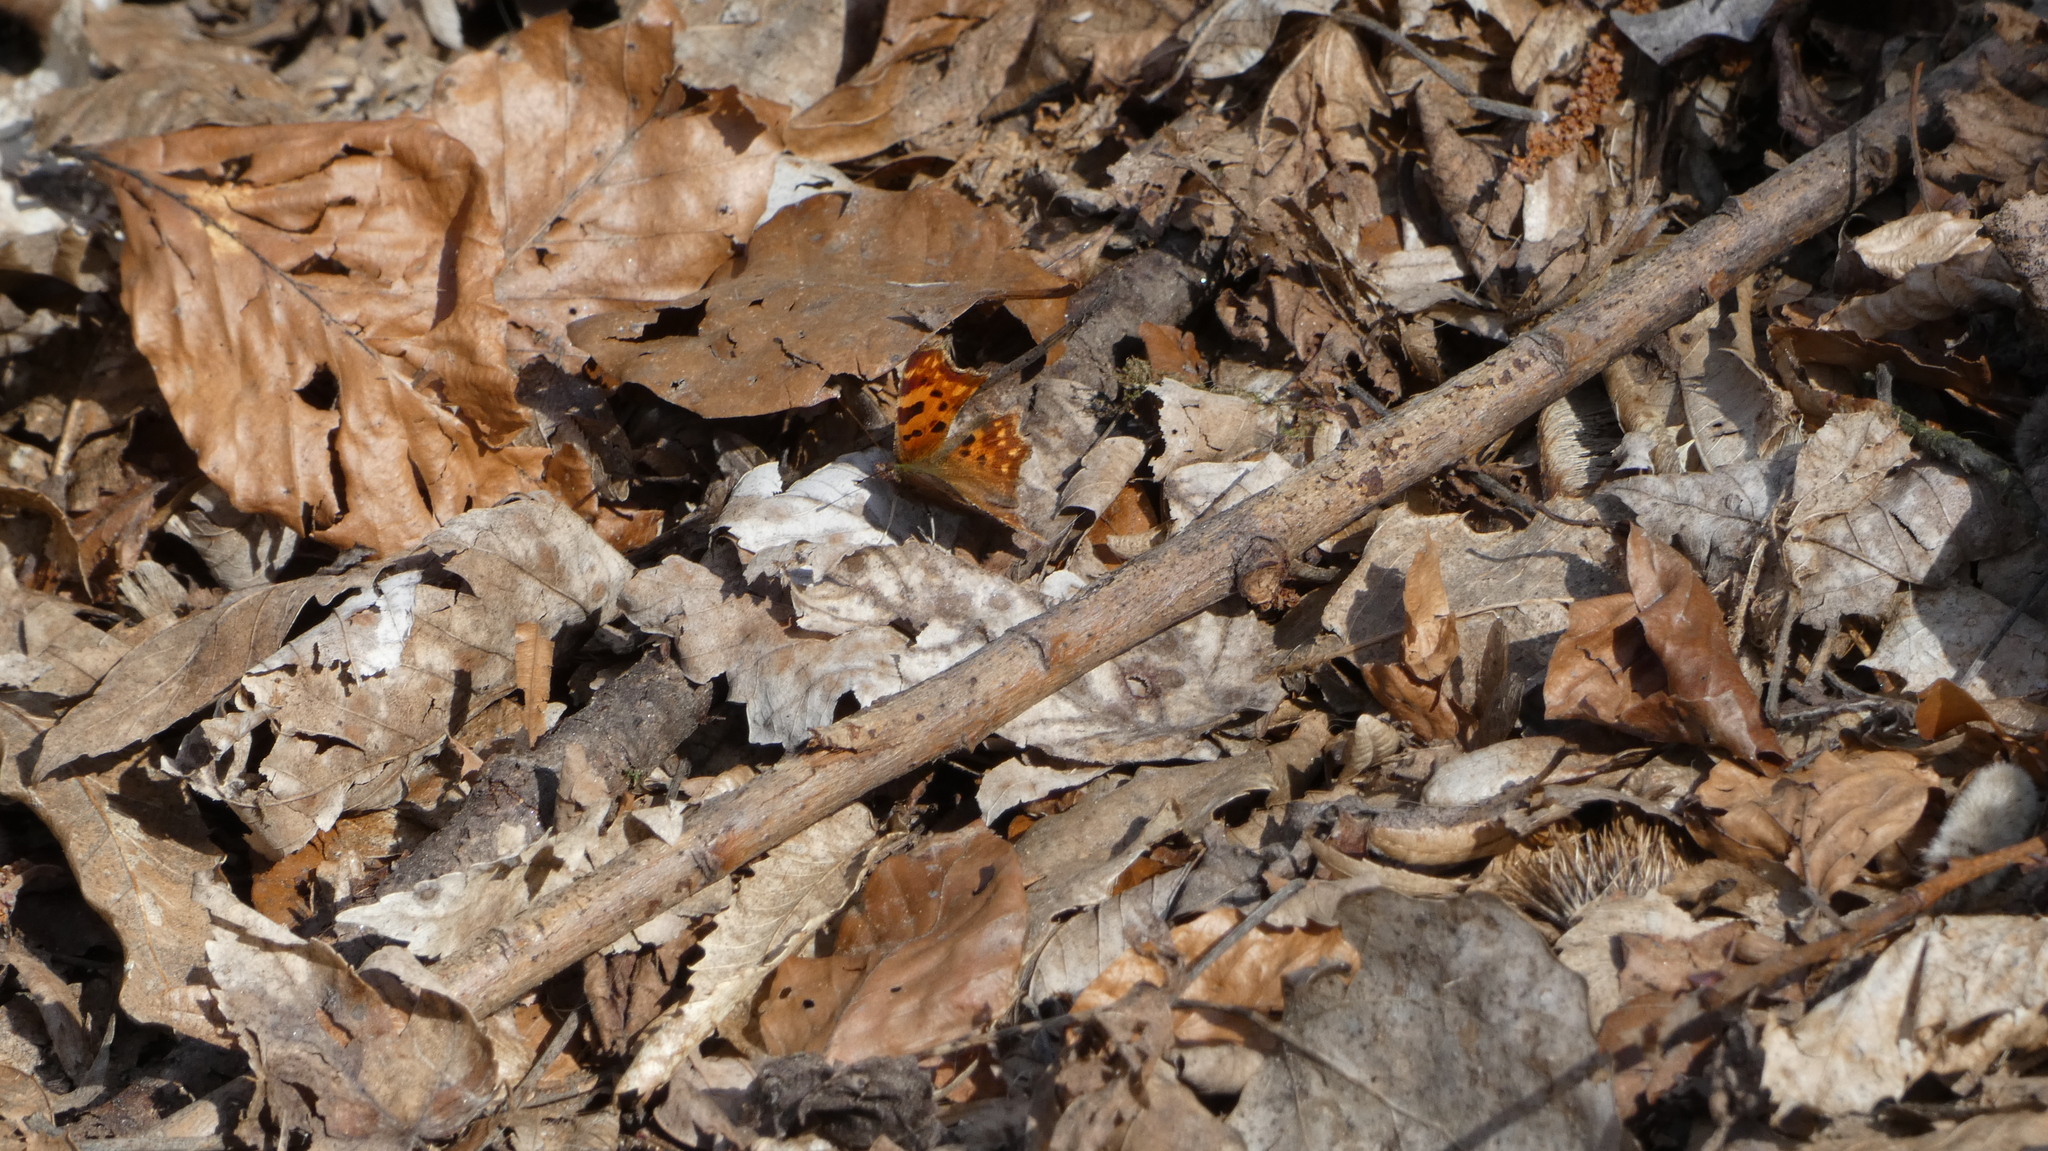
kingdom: Animalia
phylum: Arthropoda
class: Insecta
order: Lepidoptera
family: Nymphalidae
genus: Polygonia
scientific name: Polygonia c-album
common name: Comma
